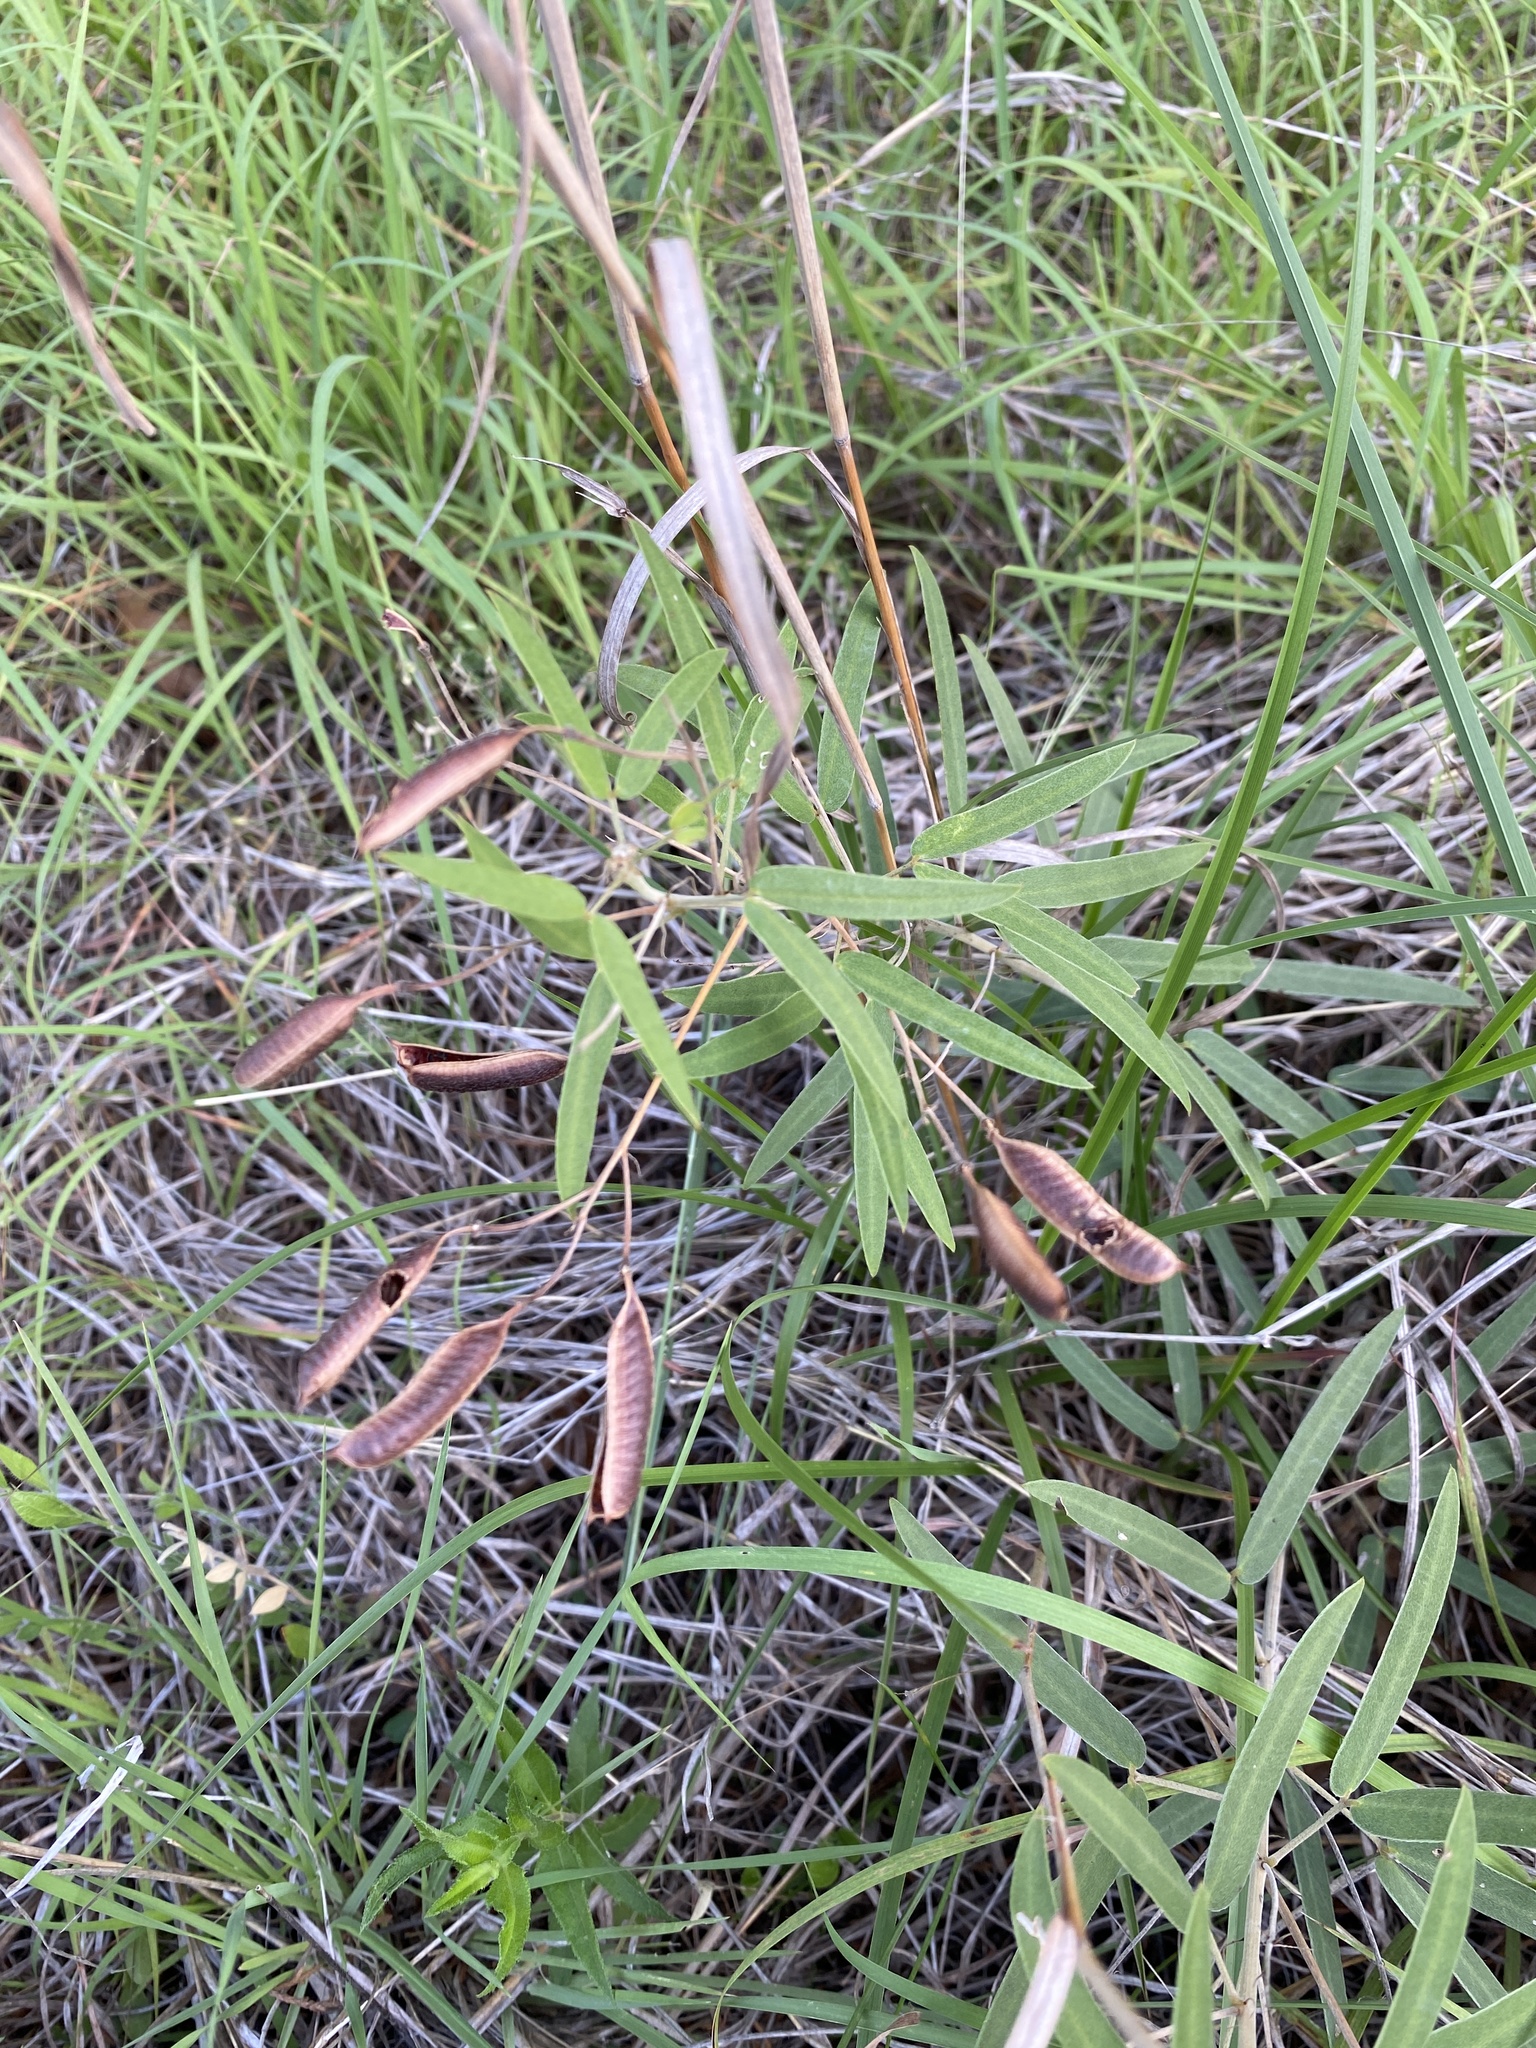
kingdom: Plantae
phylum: Tracheophyta
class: Magnoliopsida
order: Fabales
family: Fabaceae
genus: Senna
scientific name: Senna roemeriana
